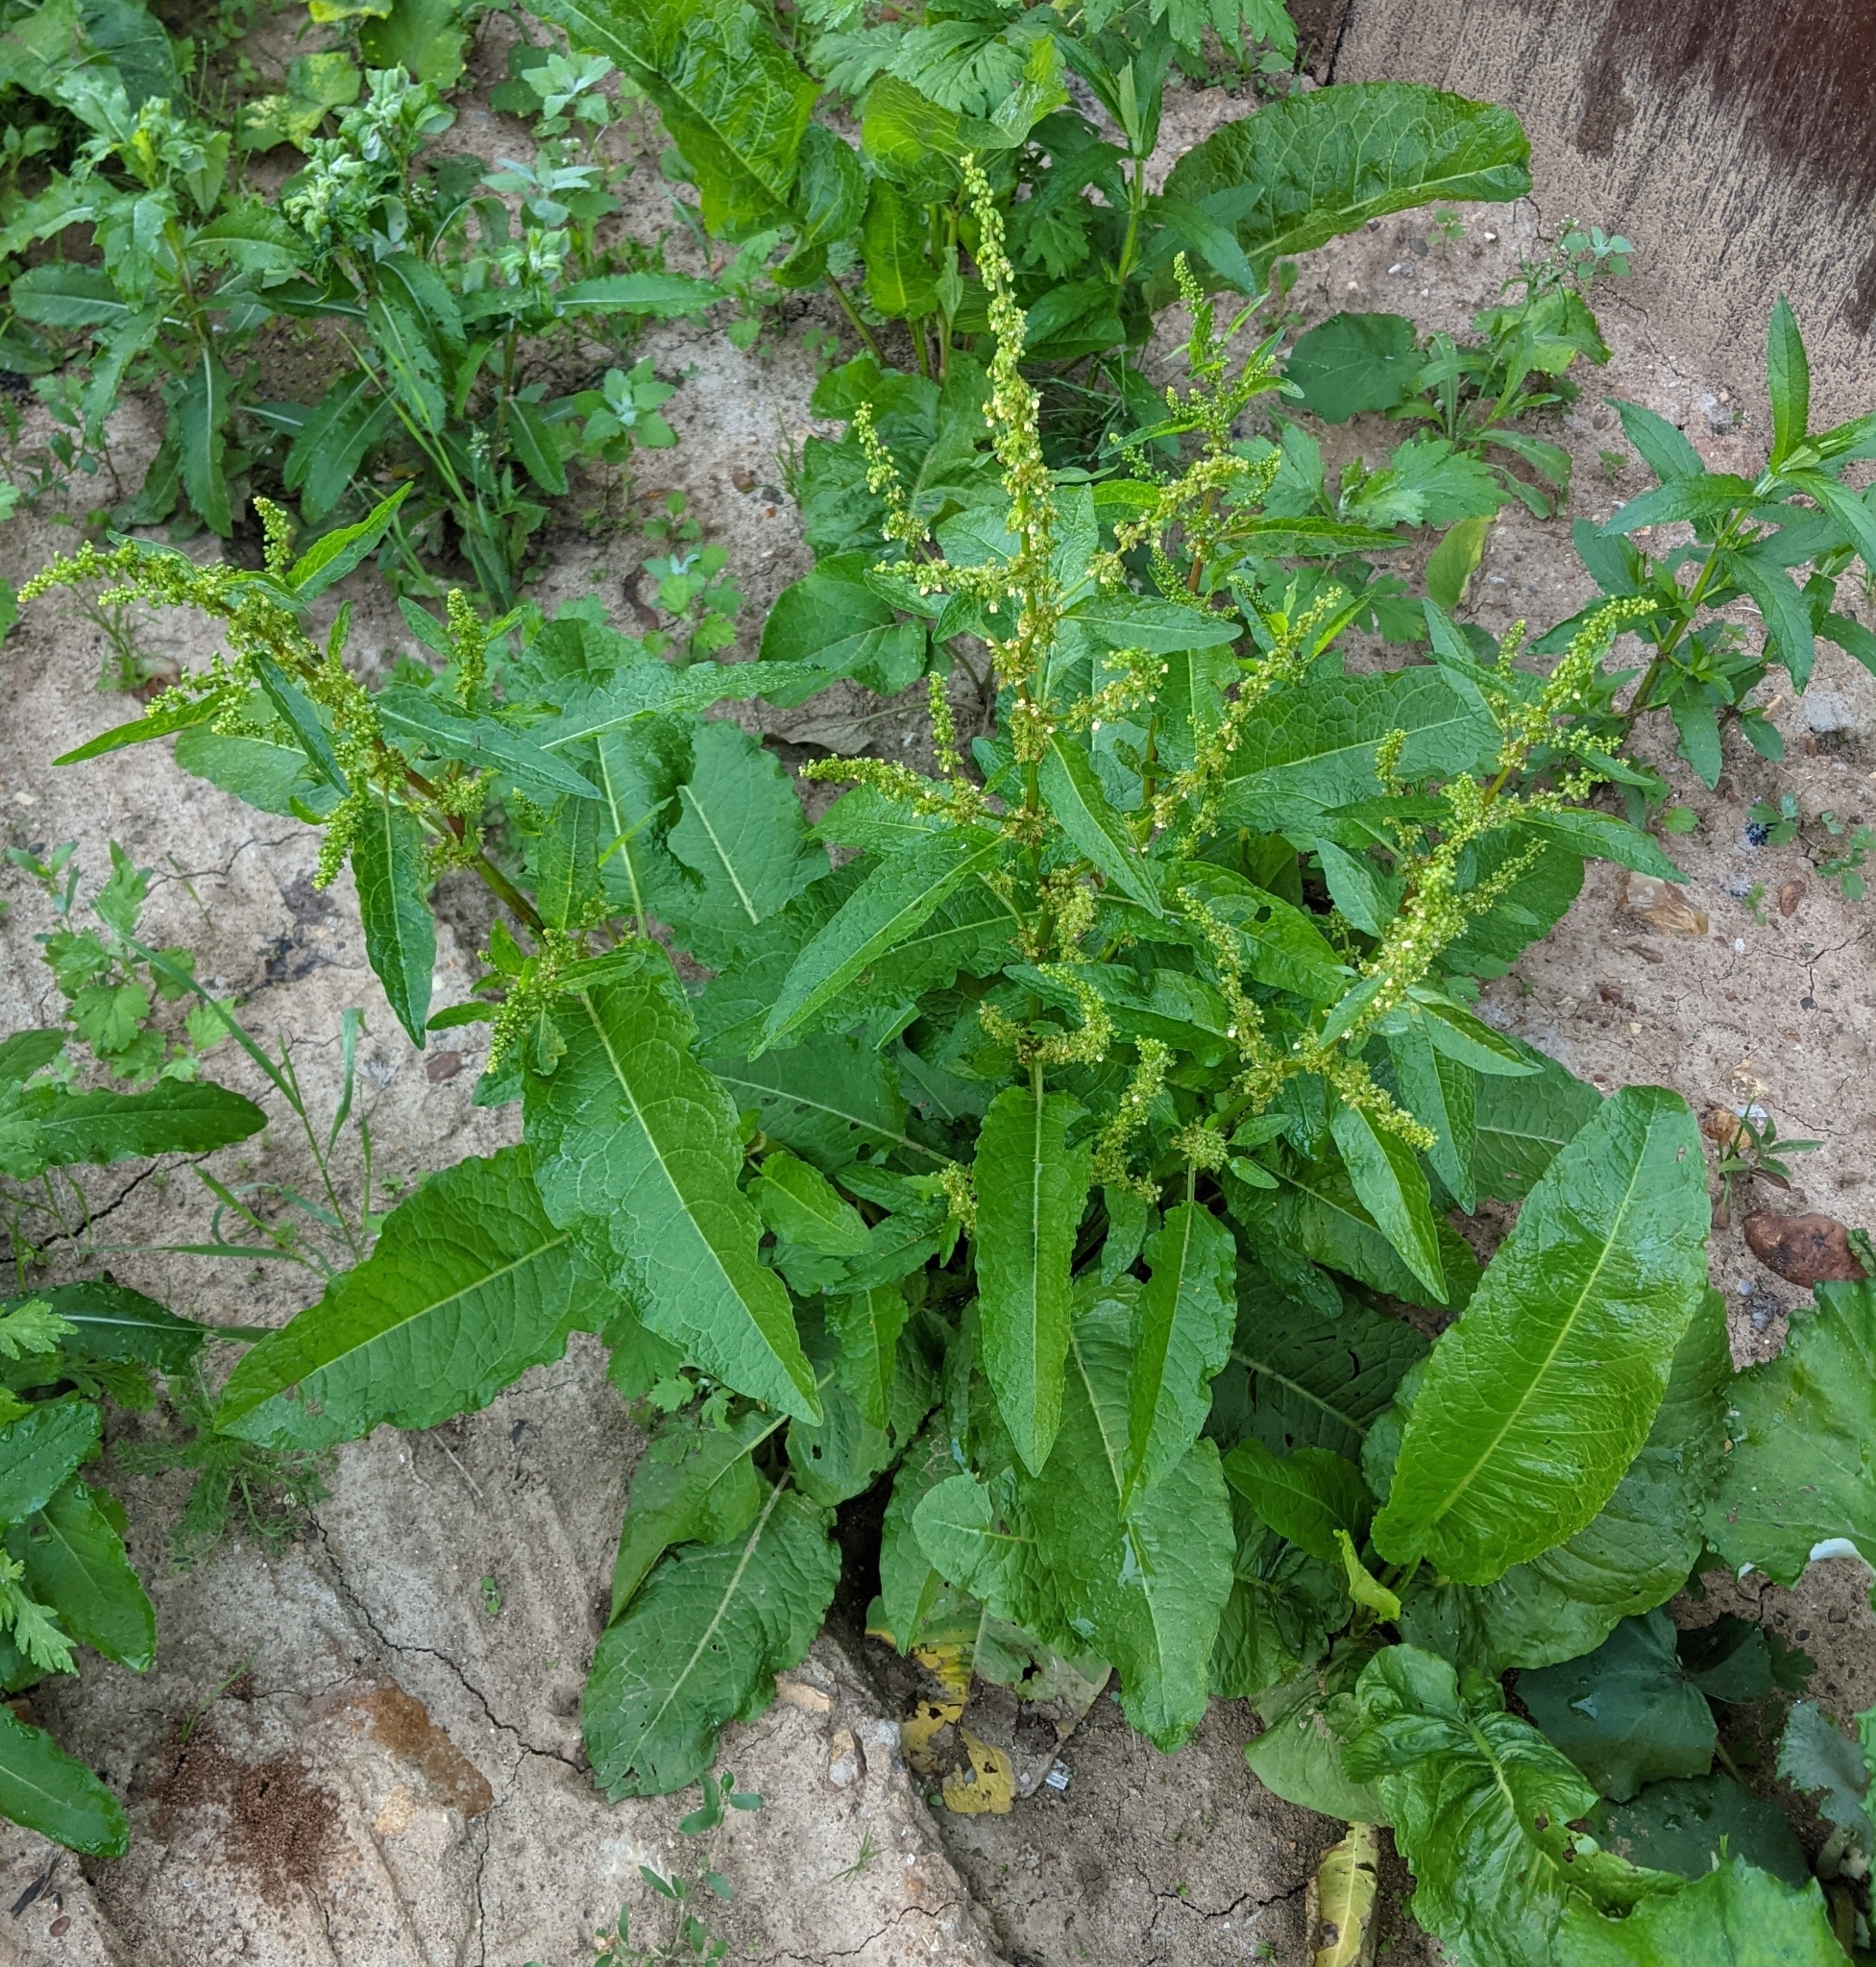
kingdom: Plantae
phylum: Tracheophyta
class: Magnoliopsida
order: Caryophyllales
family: Polygonaceae
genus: Rumex
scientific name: Rumex obtusifolius
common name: Bitter dock
